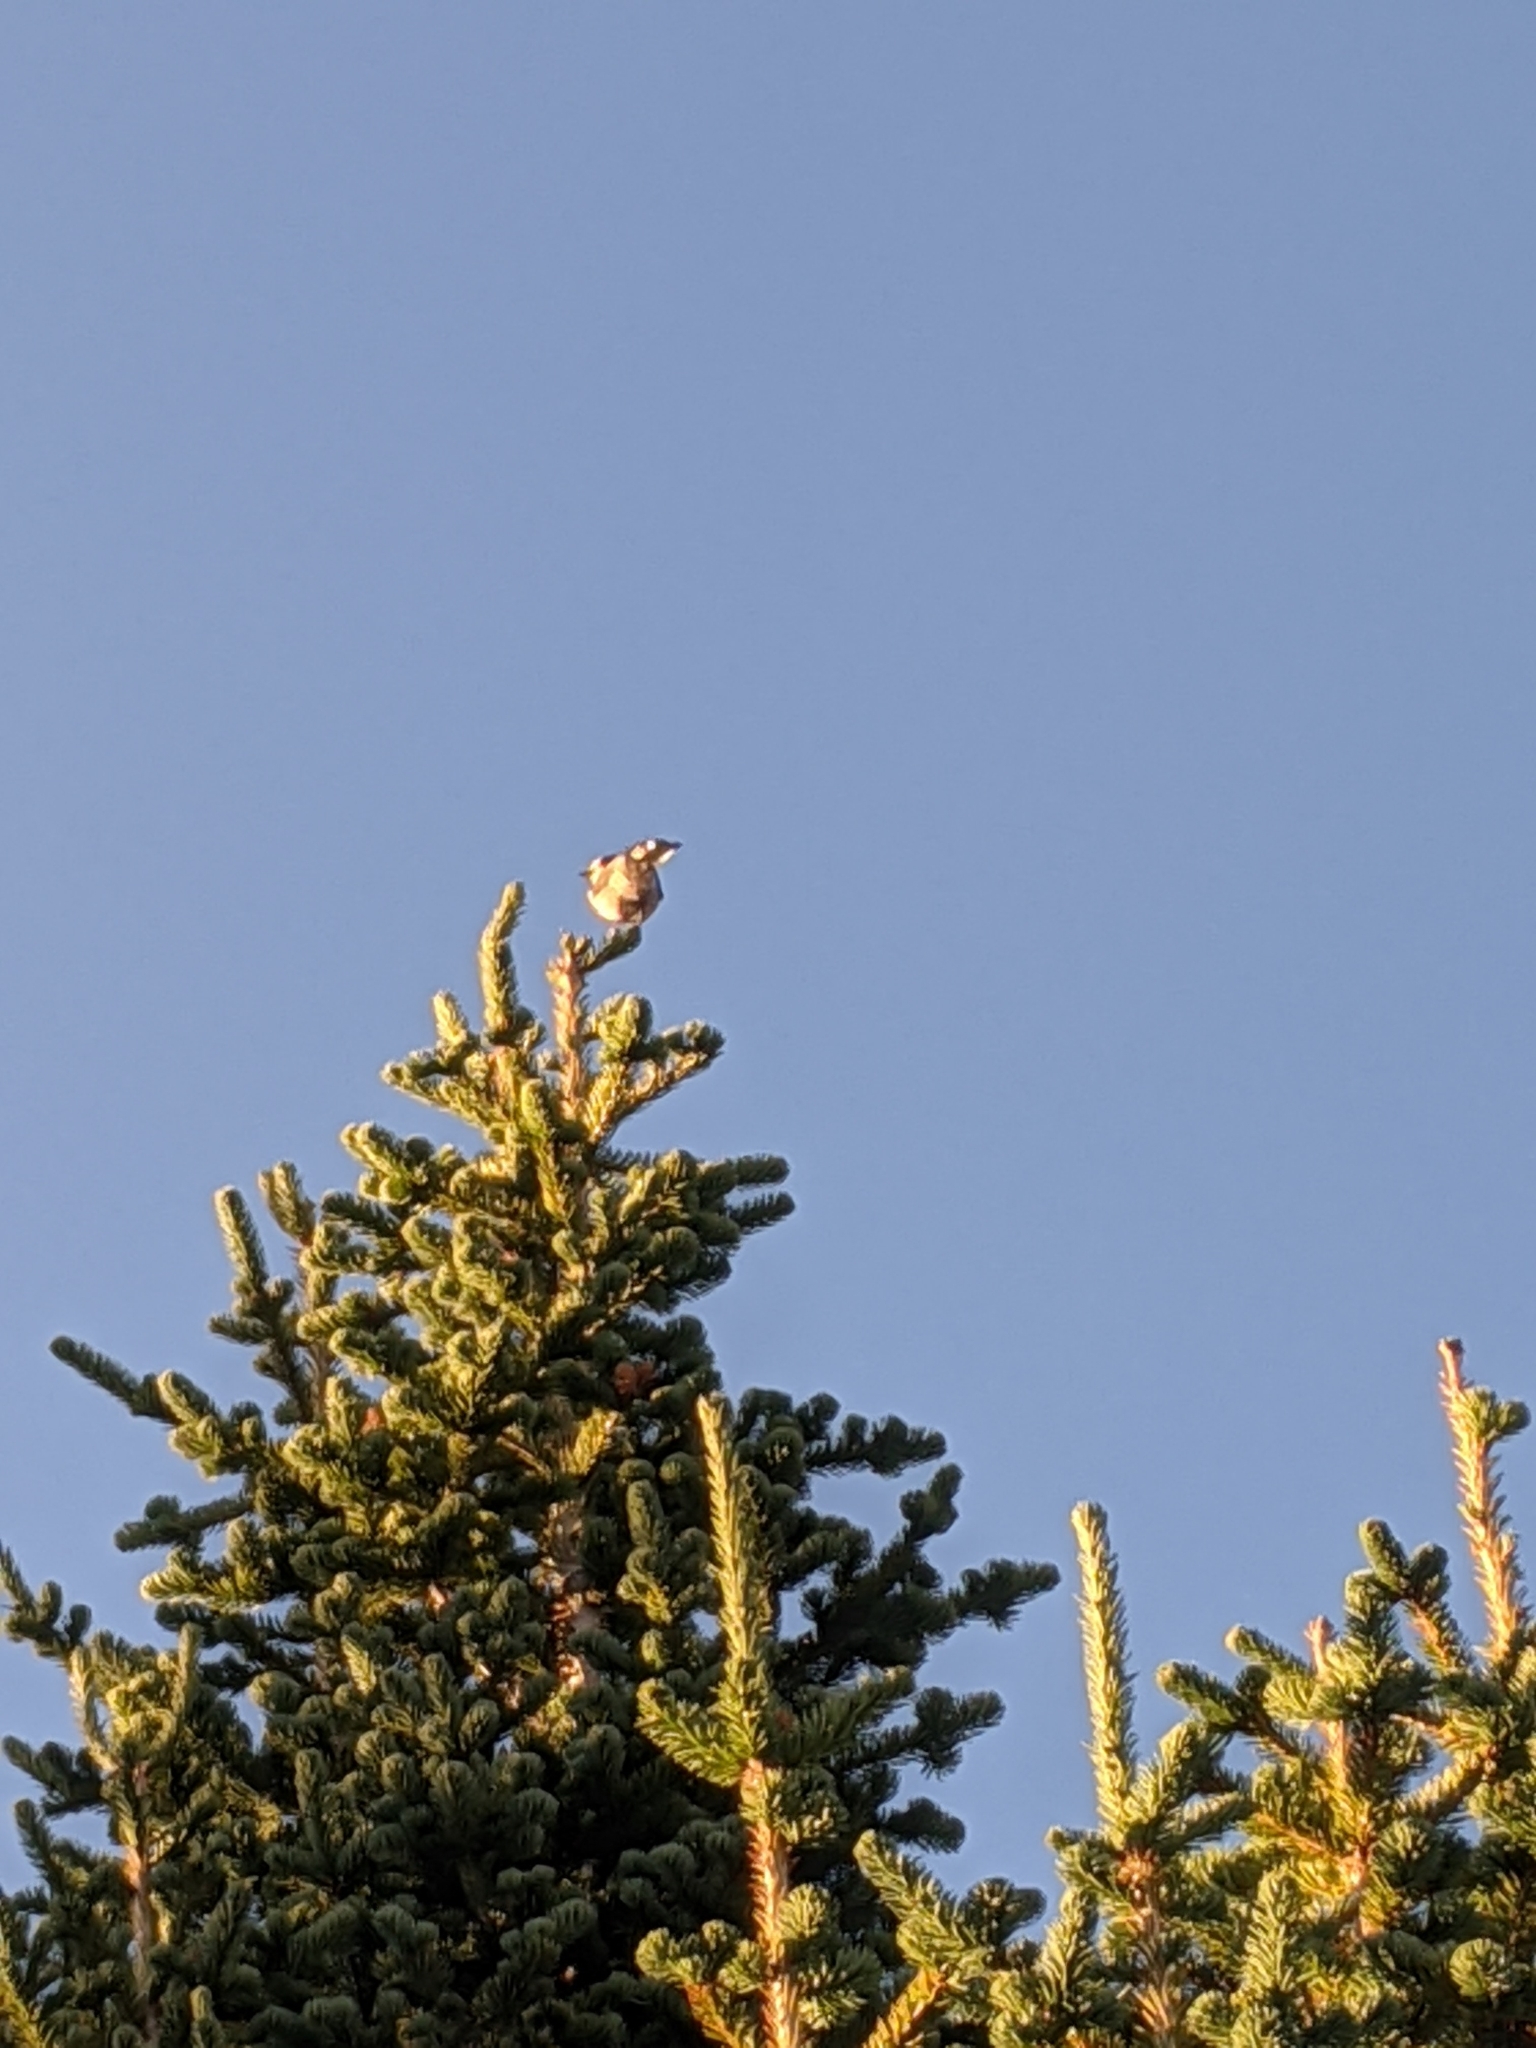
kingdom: Animalia
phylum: Chordata
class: Aves
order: Passeriformes
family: Corvidae
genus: Perisoreus
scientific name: Perisoreus canadensis
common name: Gray jay
